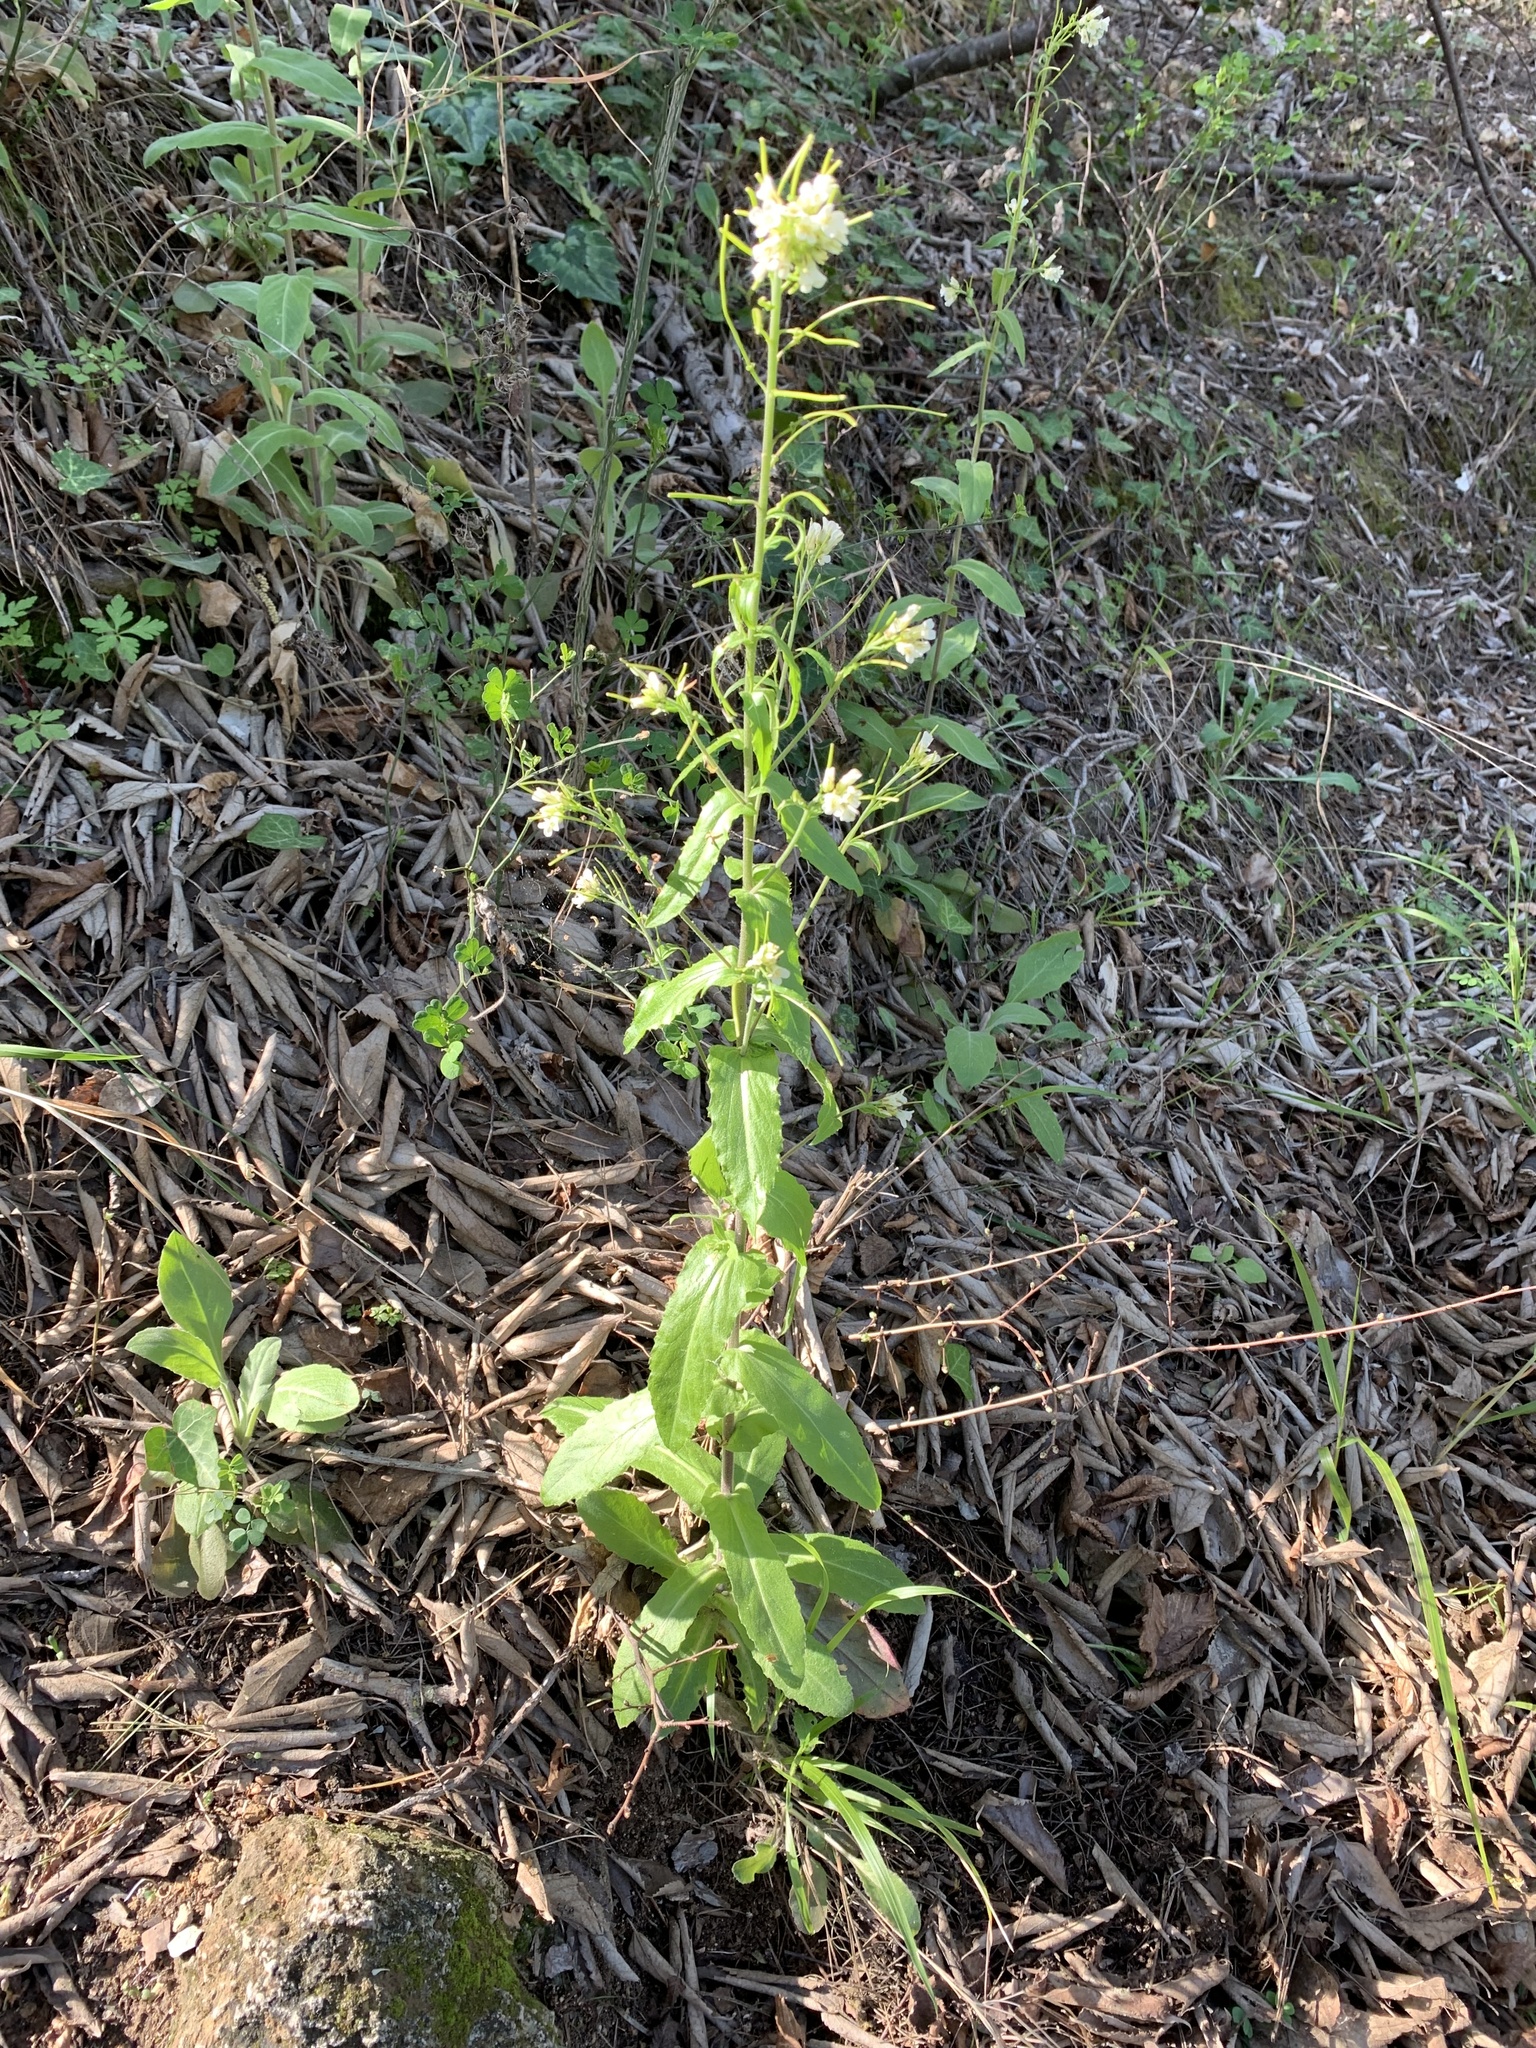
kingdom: Plantae
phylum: Tracheophyta
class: Magnoliopsida
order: Brassicales
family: Brassicaceae
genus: Pseudoturritis
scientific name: Pseudoturritis turrita
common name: Tower cress
